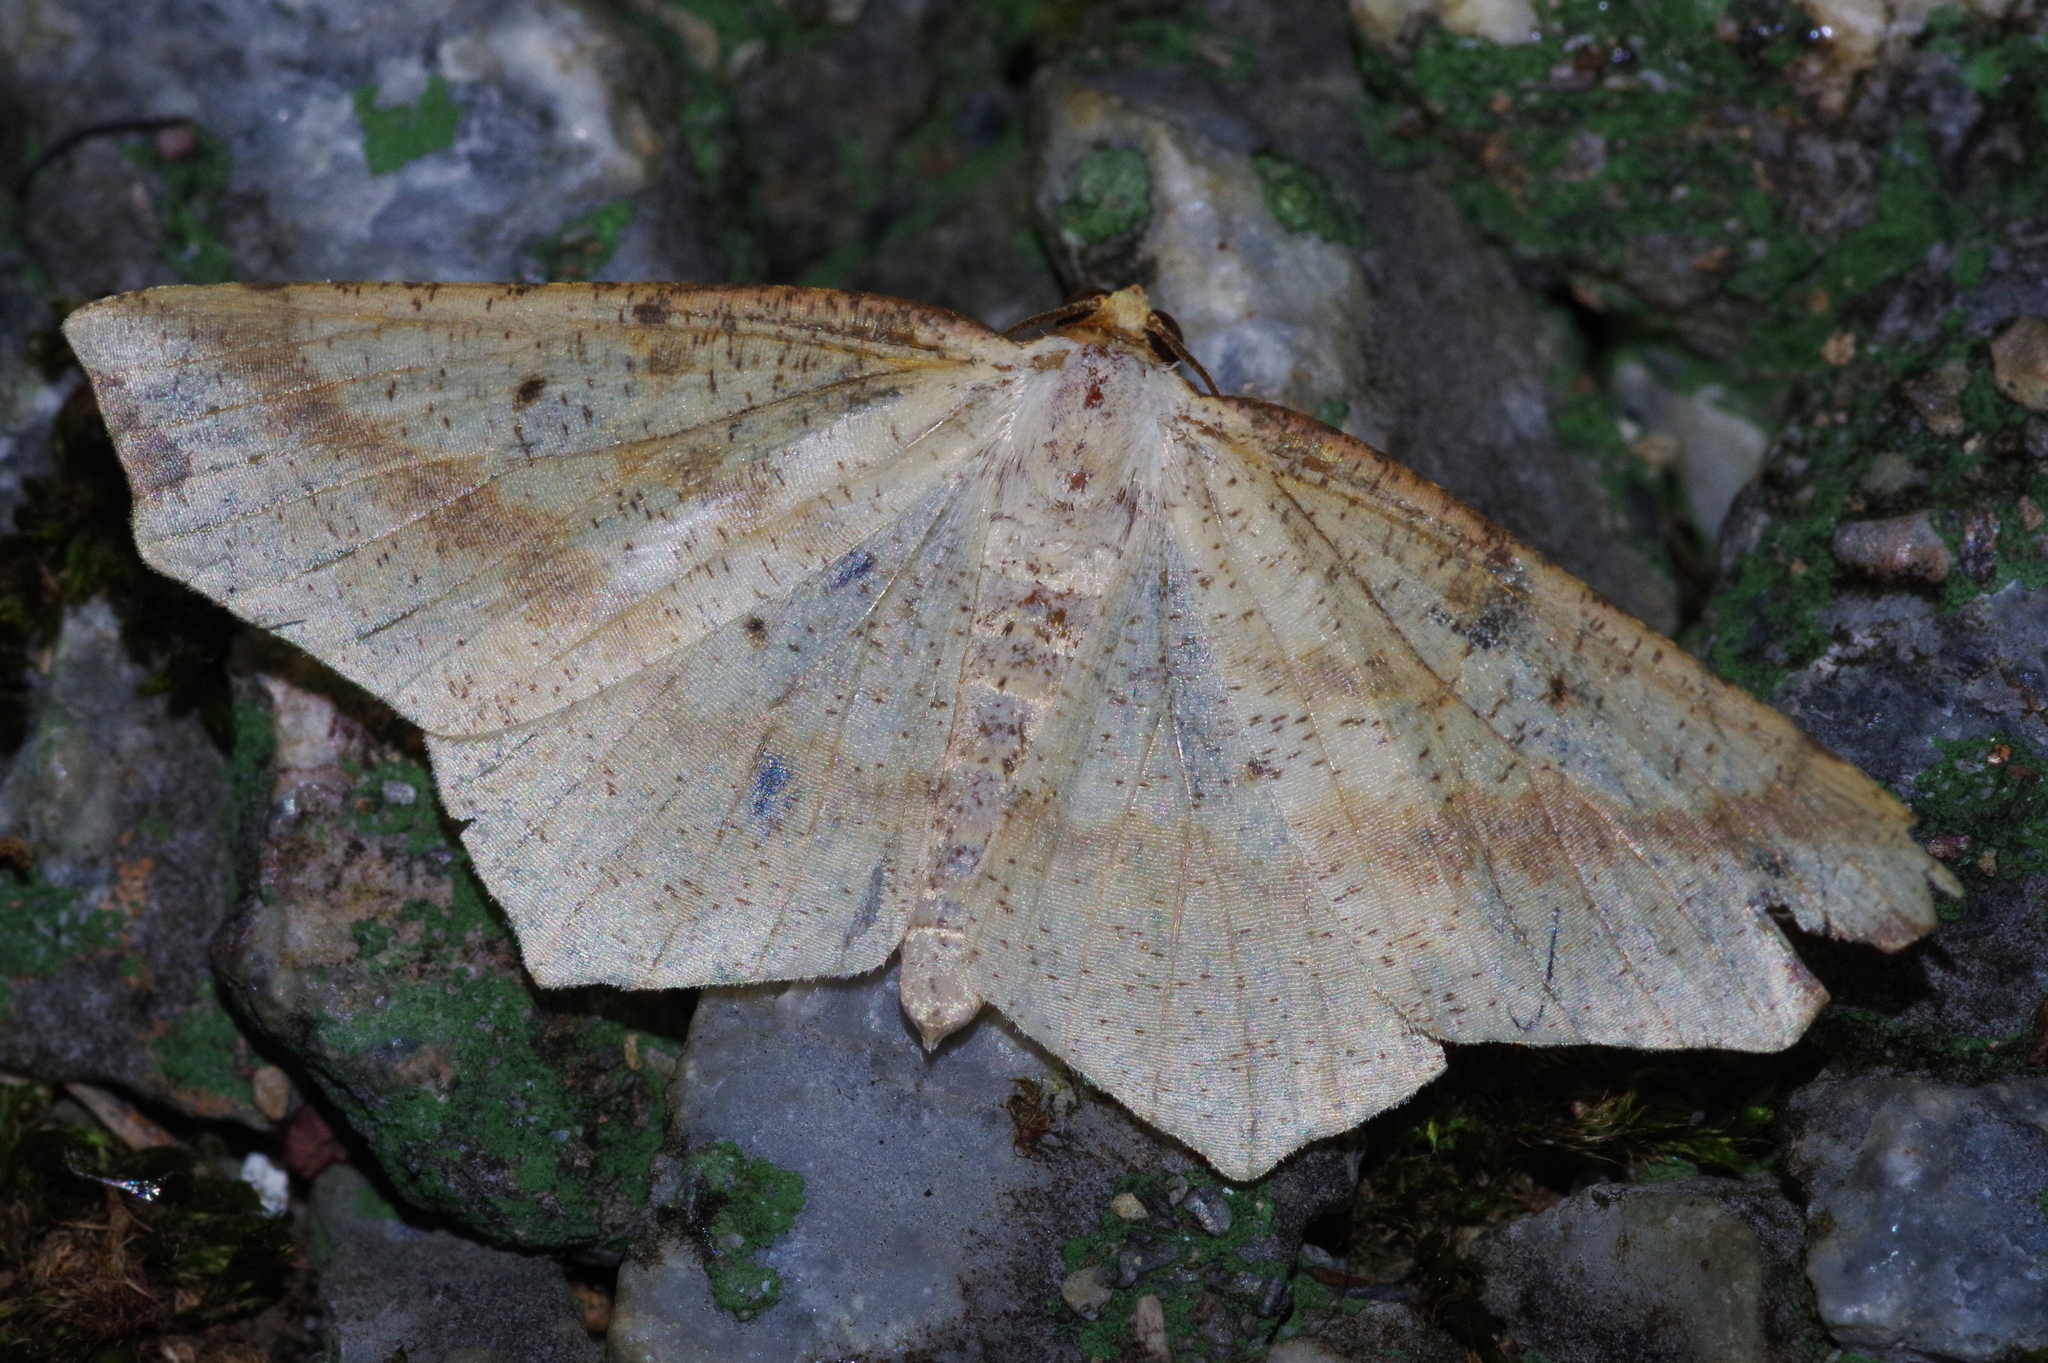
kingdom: Animalia
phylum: Arthropoda
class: Insecta
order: Lepidoptera
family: Geometridae
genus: Pareclipsis
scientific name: Pareclipsis gracilis
